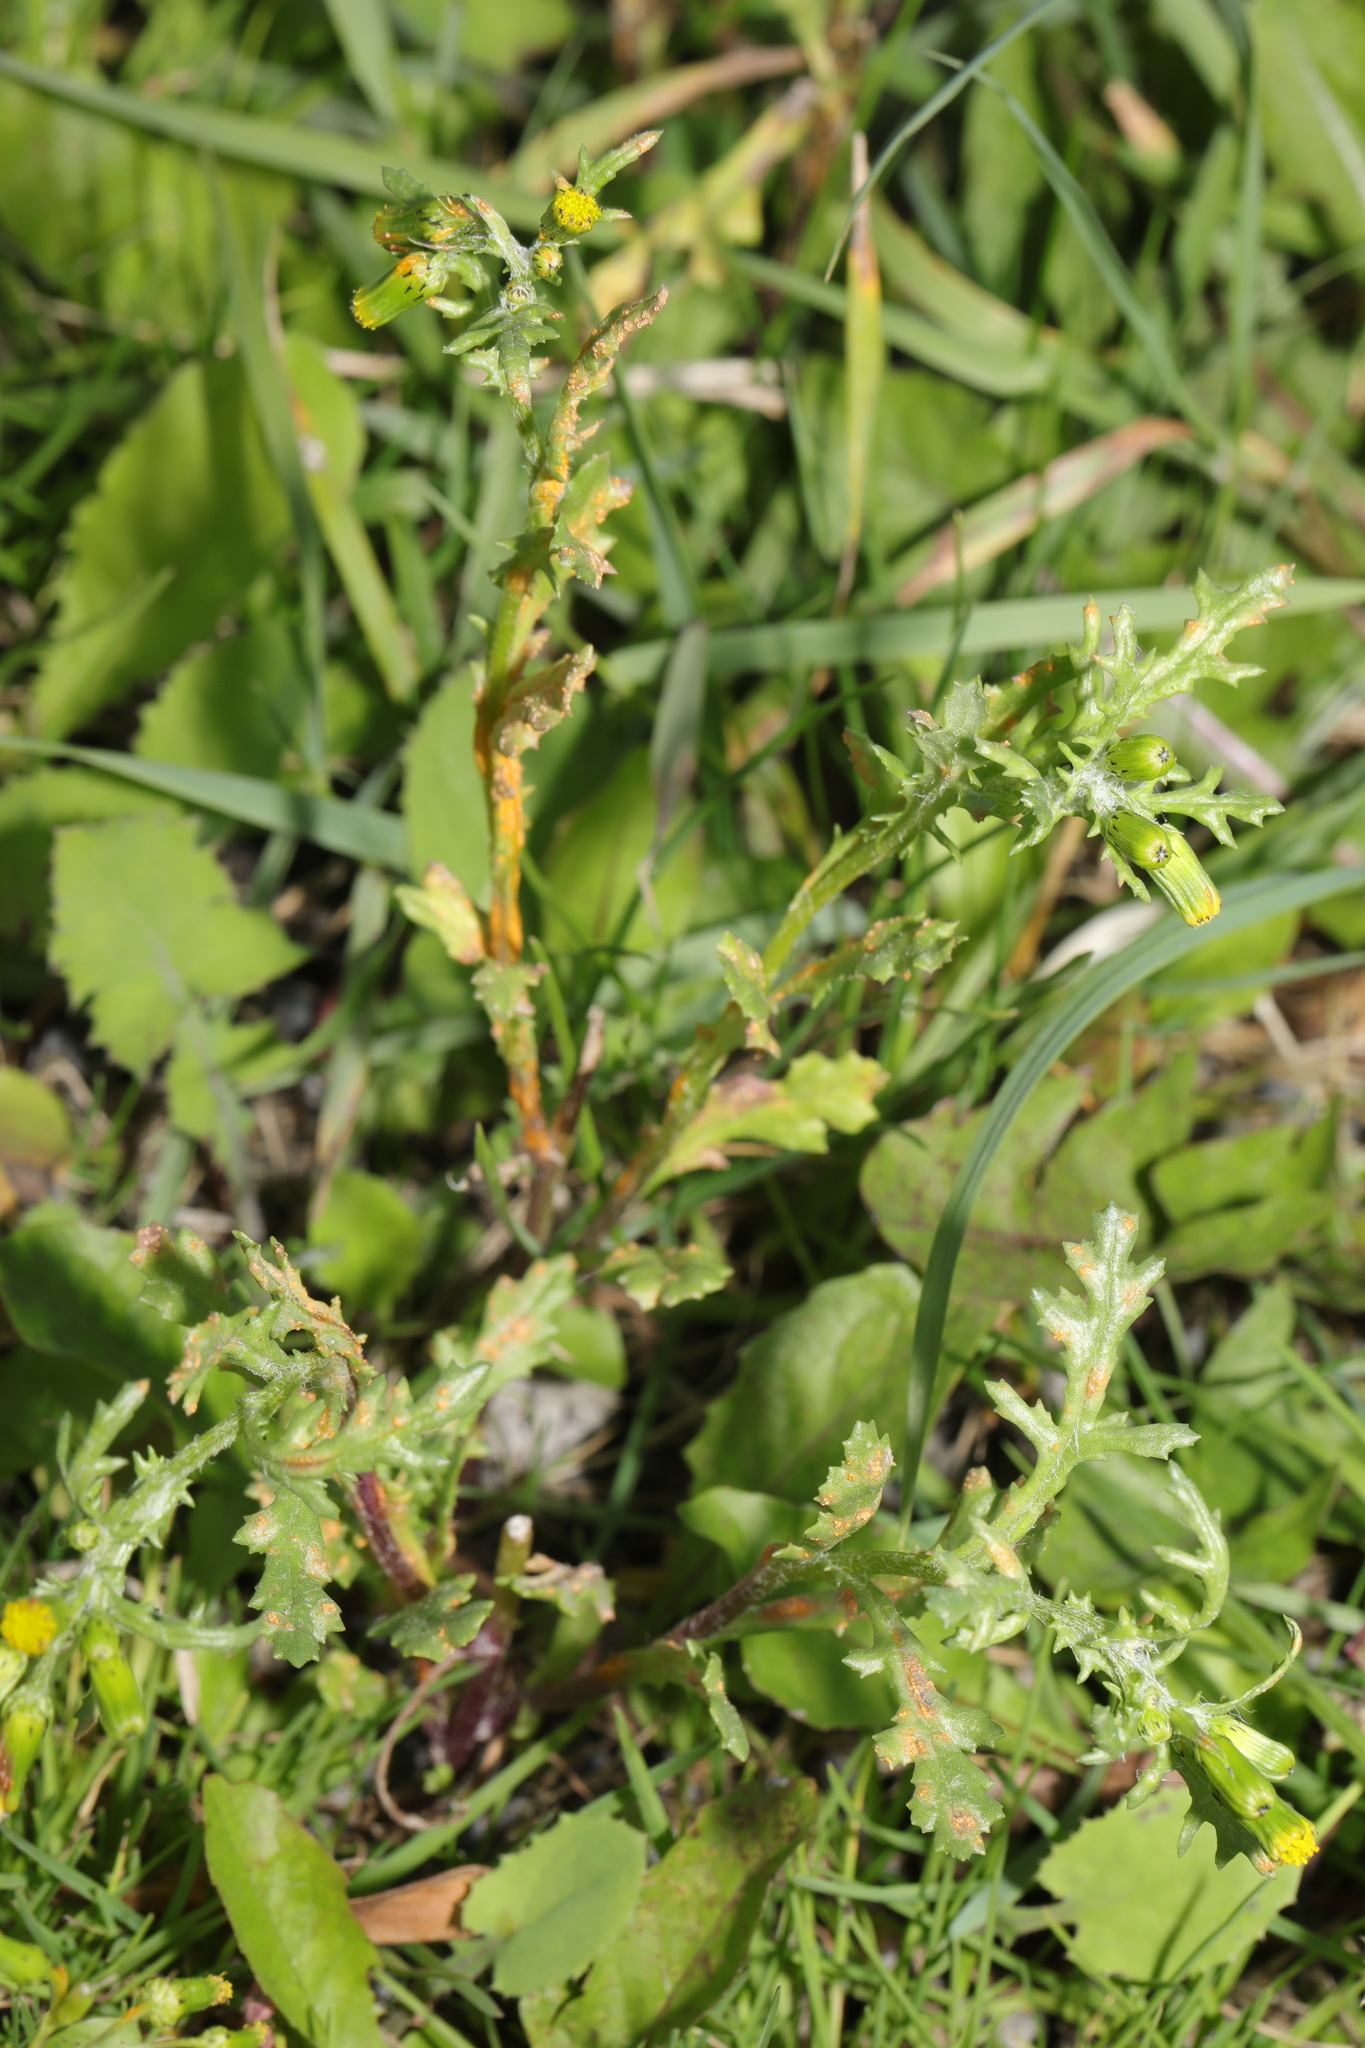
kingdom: Plantae
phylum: Tracheophyta
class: Magnoliopsida
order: Asterales
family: Asteraceae
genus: Senecio
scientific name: Senecio vulgaris
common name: Old-man-in-the-spring
